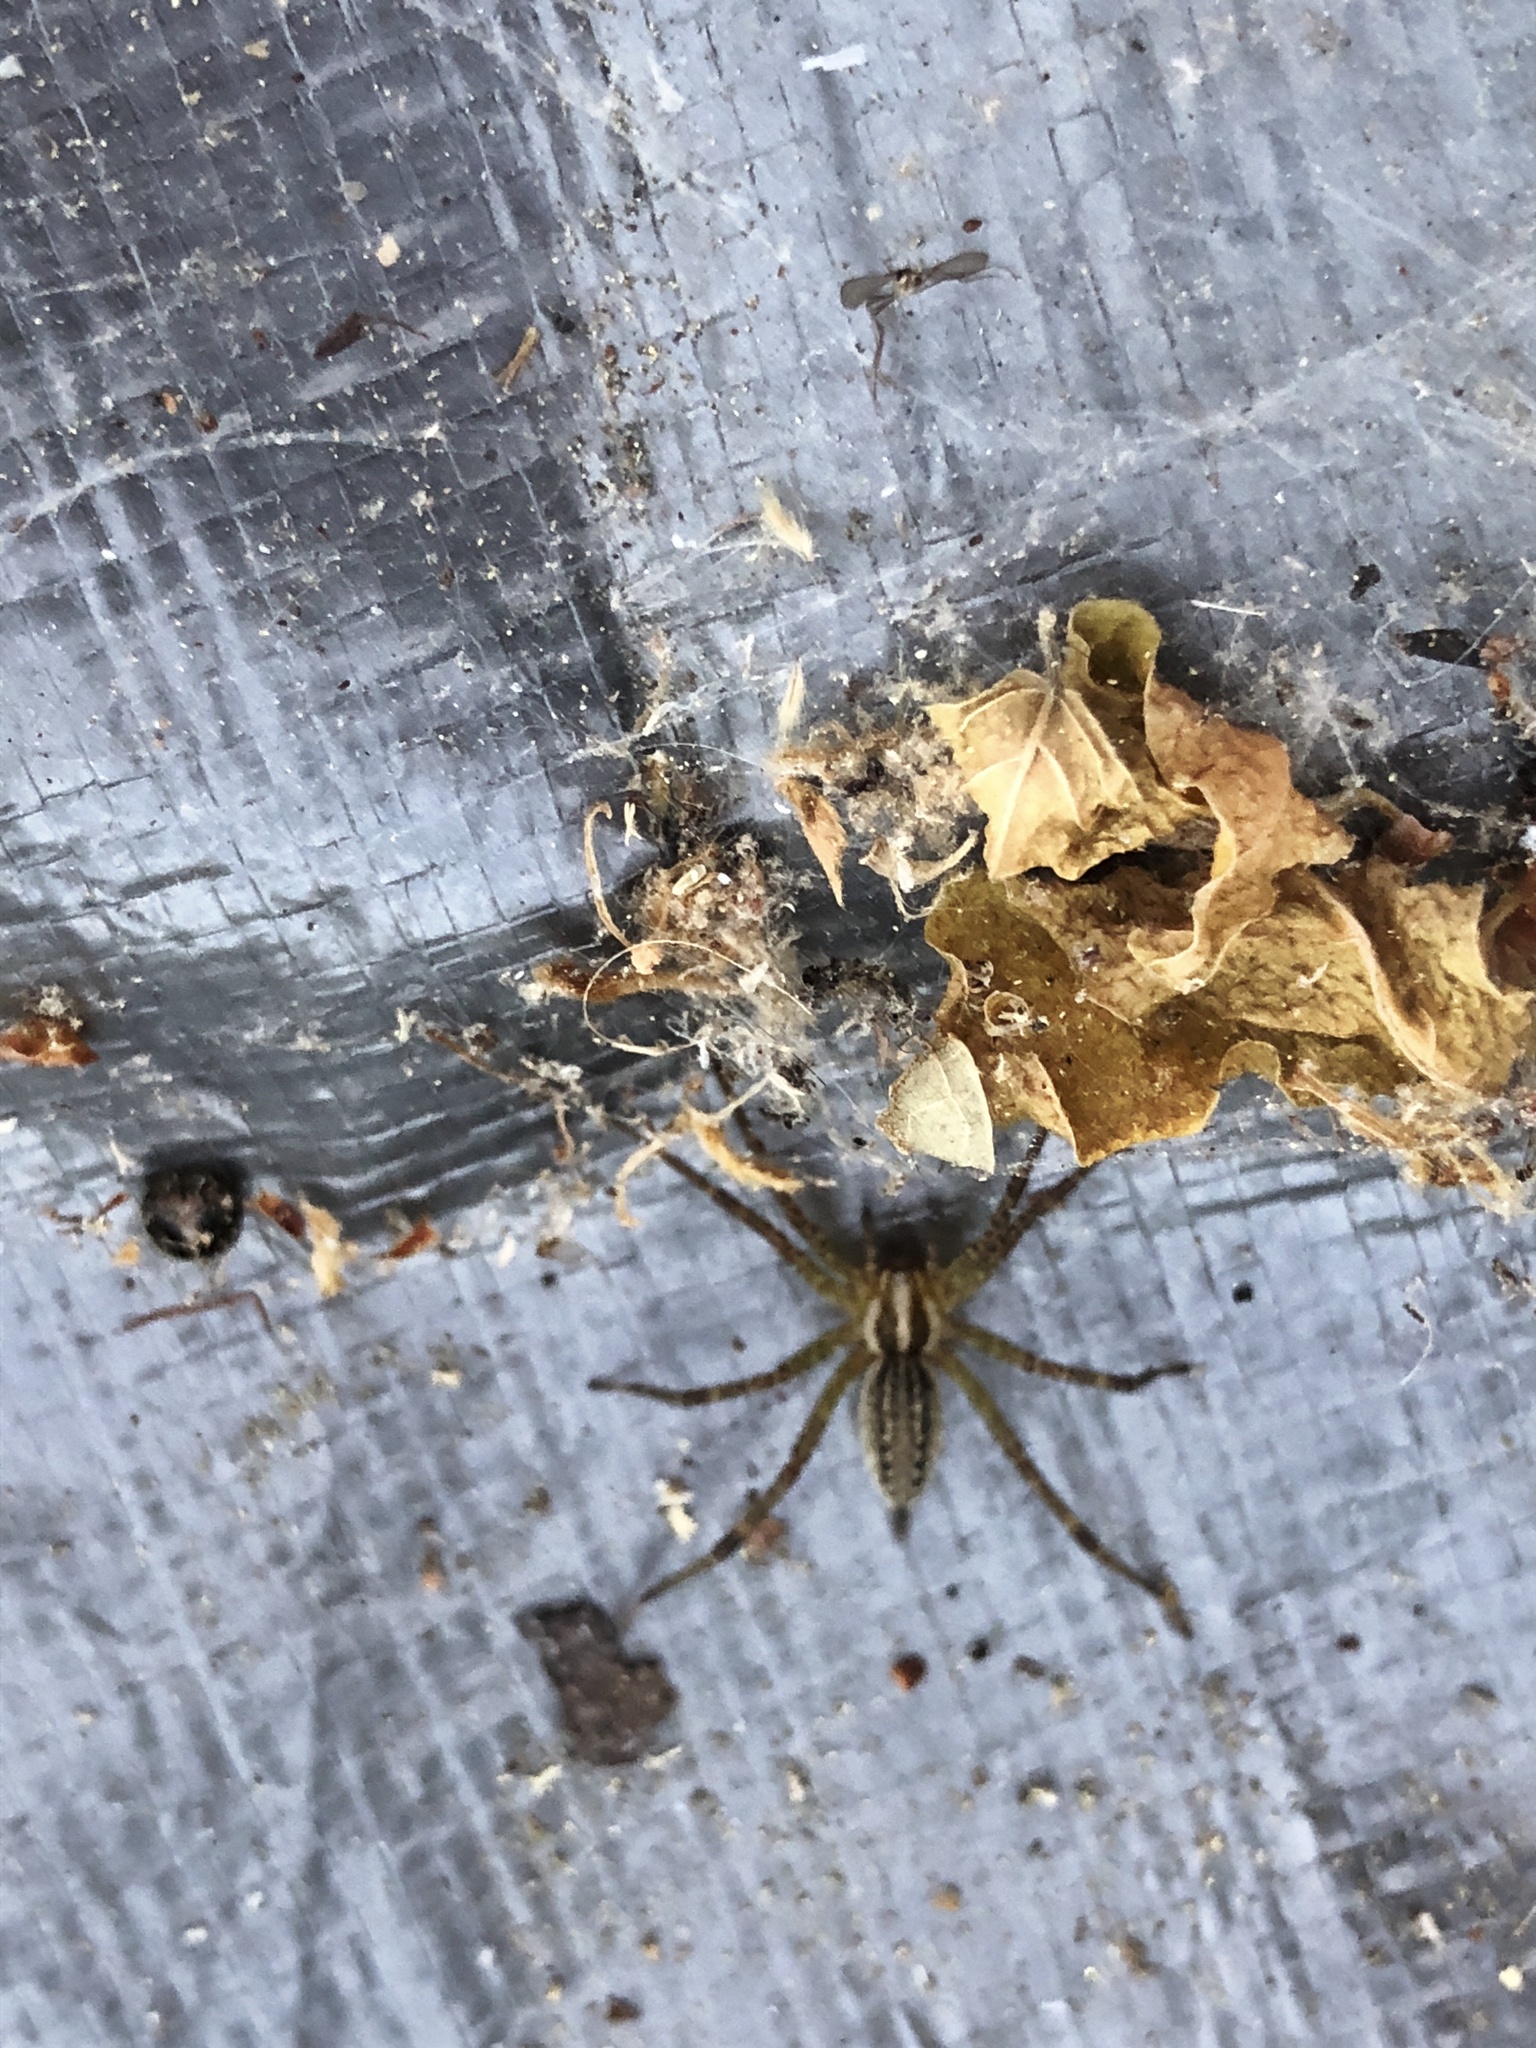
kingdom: Animalia
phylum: Arthropoda
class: Arachnida
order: Araneae
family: Agelenidae
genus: Agelenopsis
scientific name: Agelenopsis
